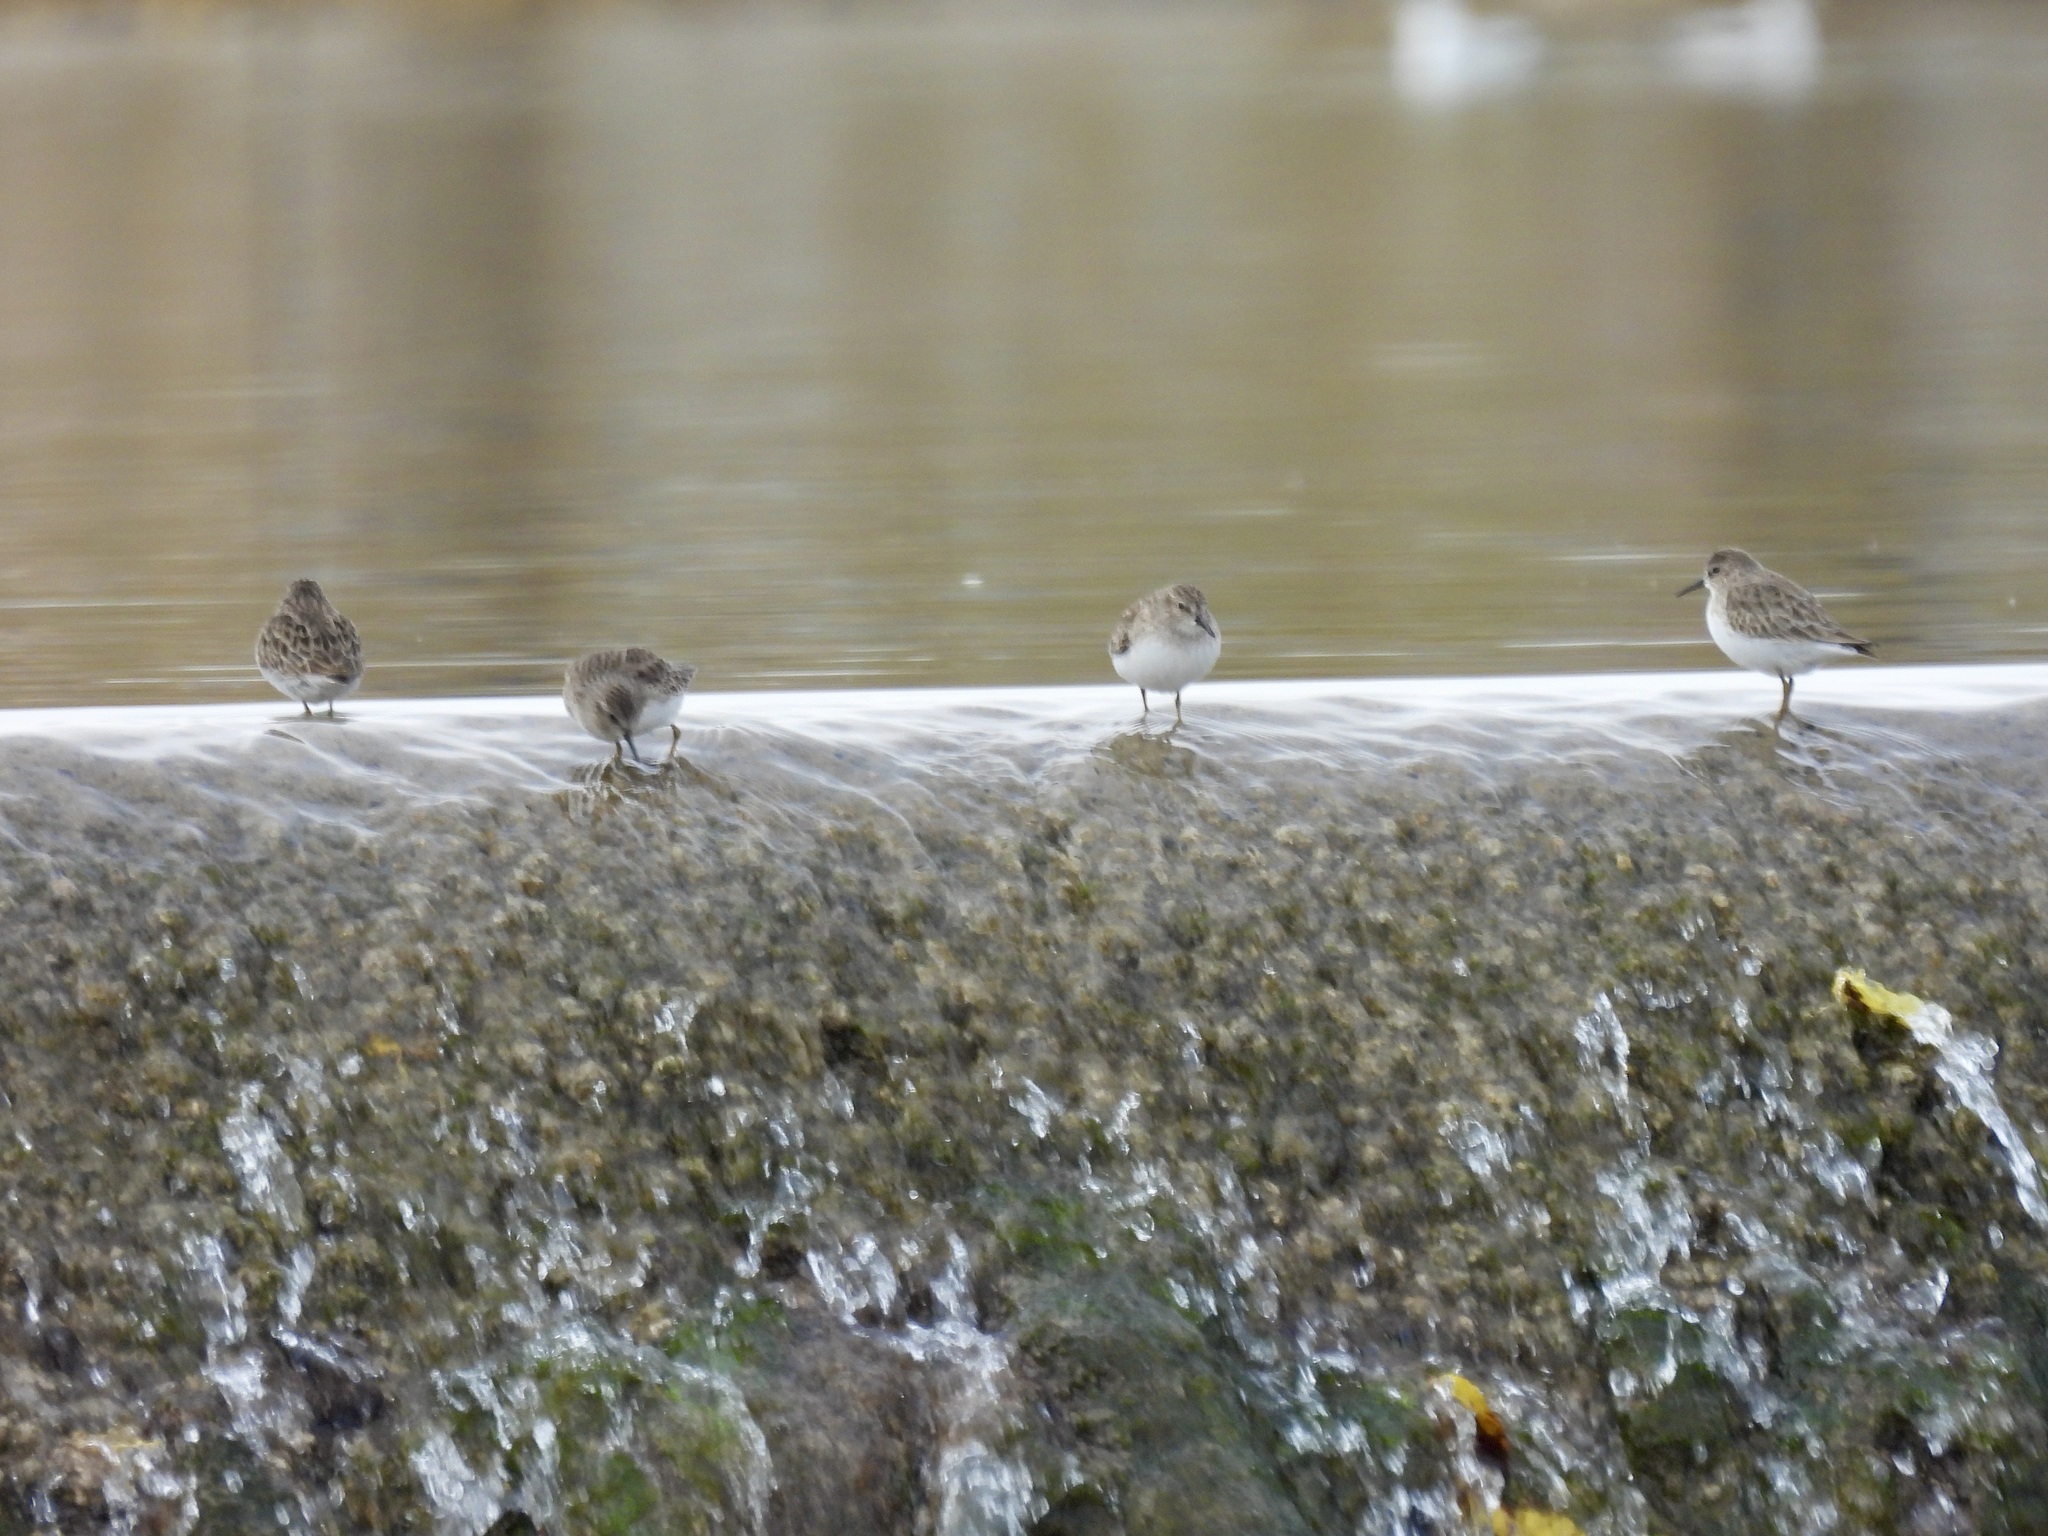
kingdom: Animalia
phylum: Chordata
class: Aves
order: Charadriiformes
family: Scolopacidae
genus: Calidris
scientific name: Calidris minutilla
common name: Least sandpiper
